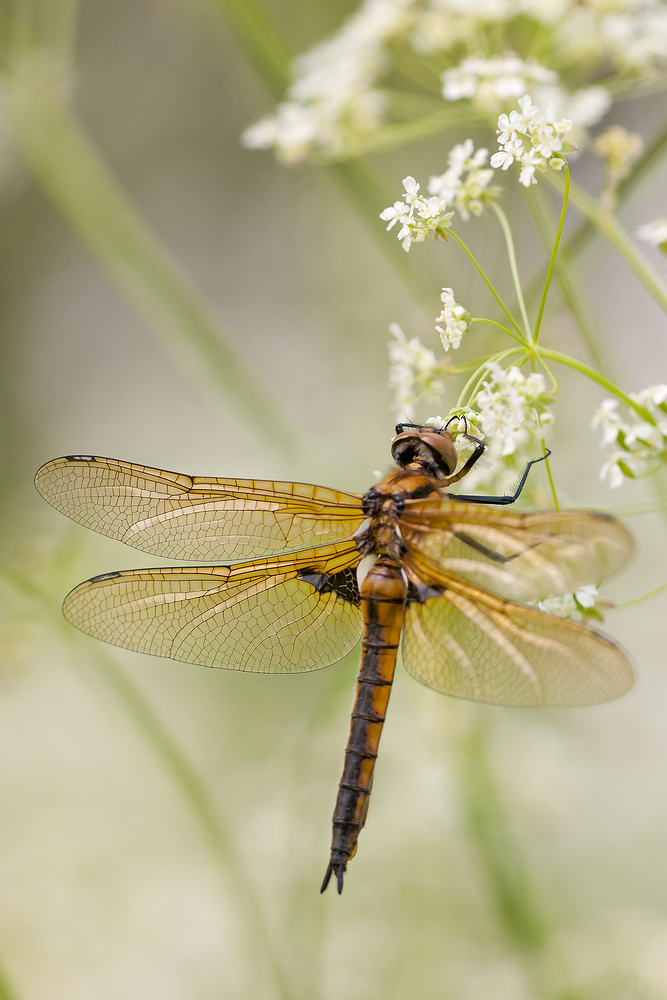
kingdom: Animalia
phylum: Arthropoda
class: Insecta
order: Odonata
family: Corduliidae
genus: Epitheca
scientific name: Epitheca bimaculata
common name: Eurasian baskettail
